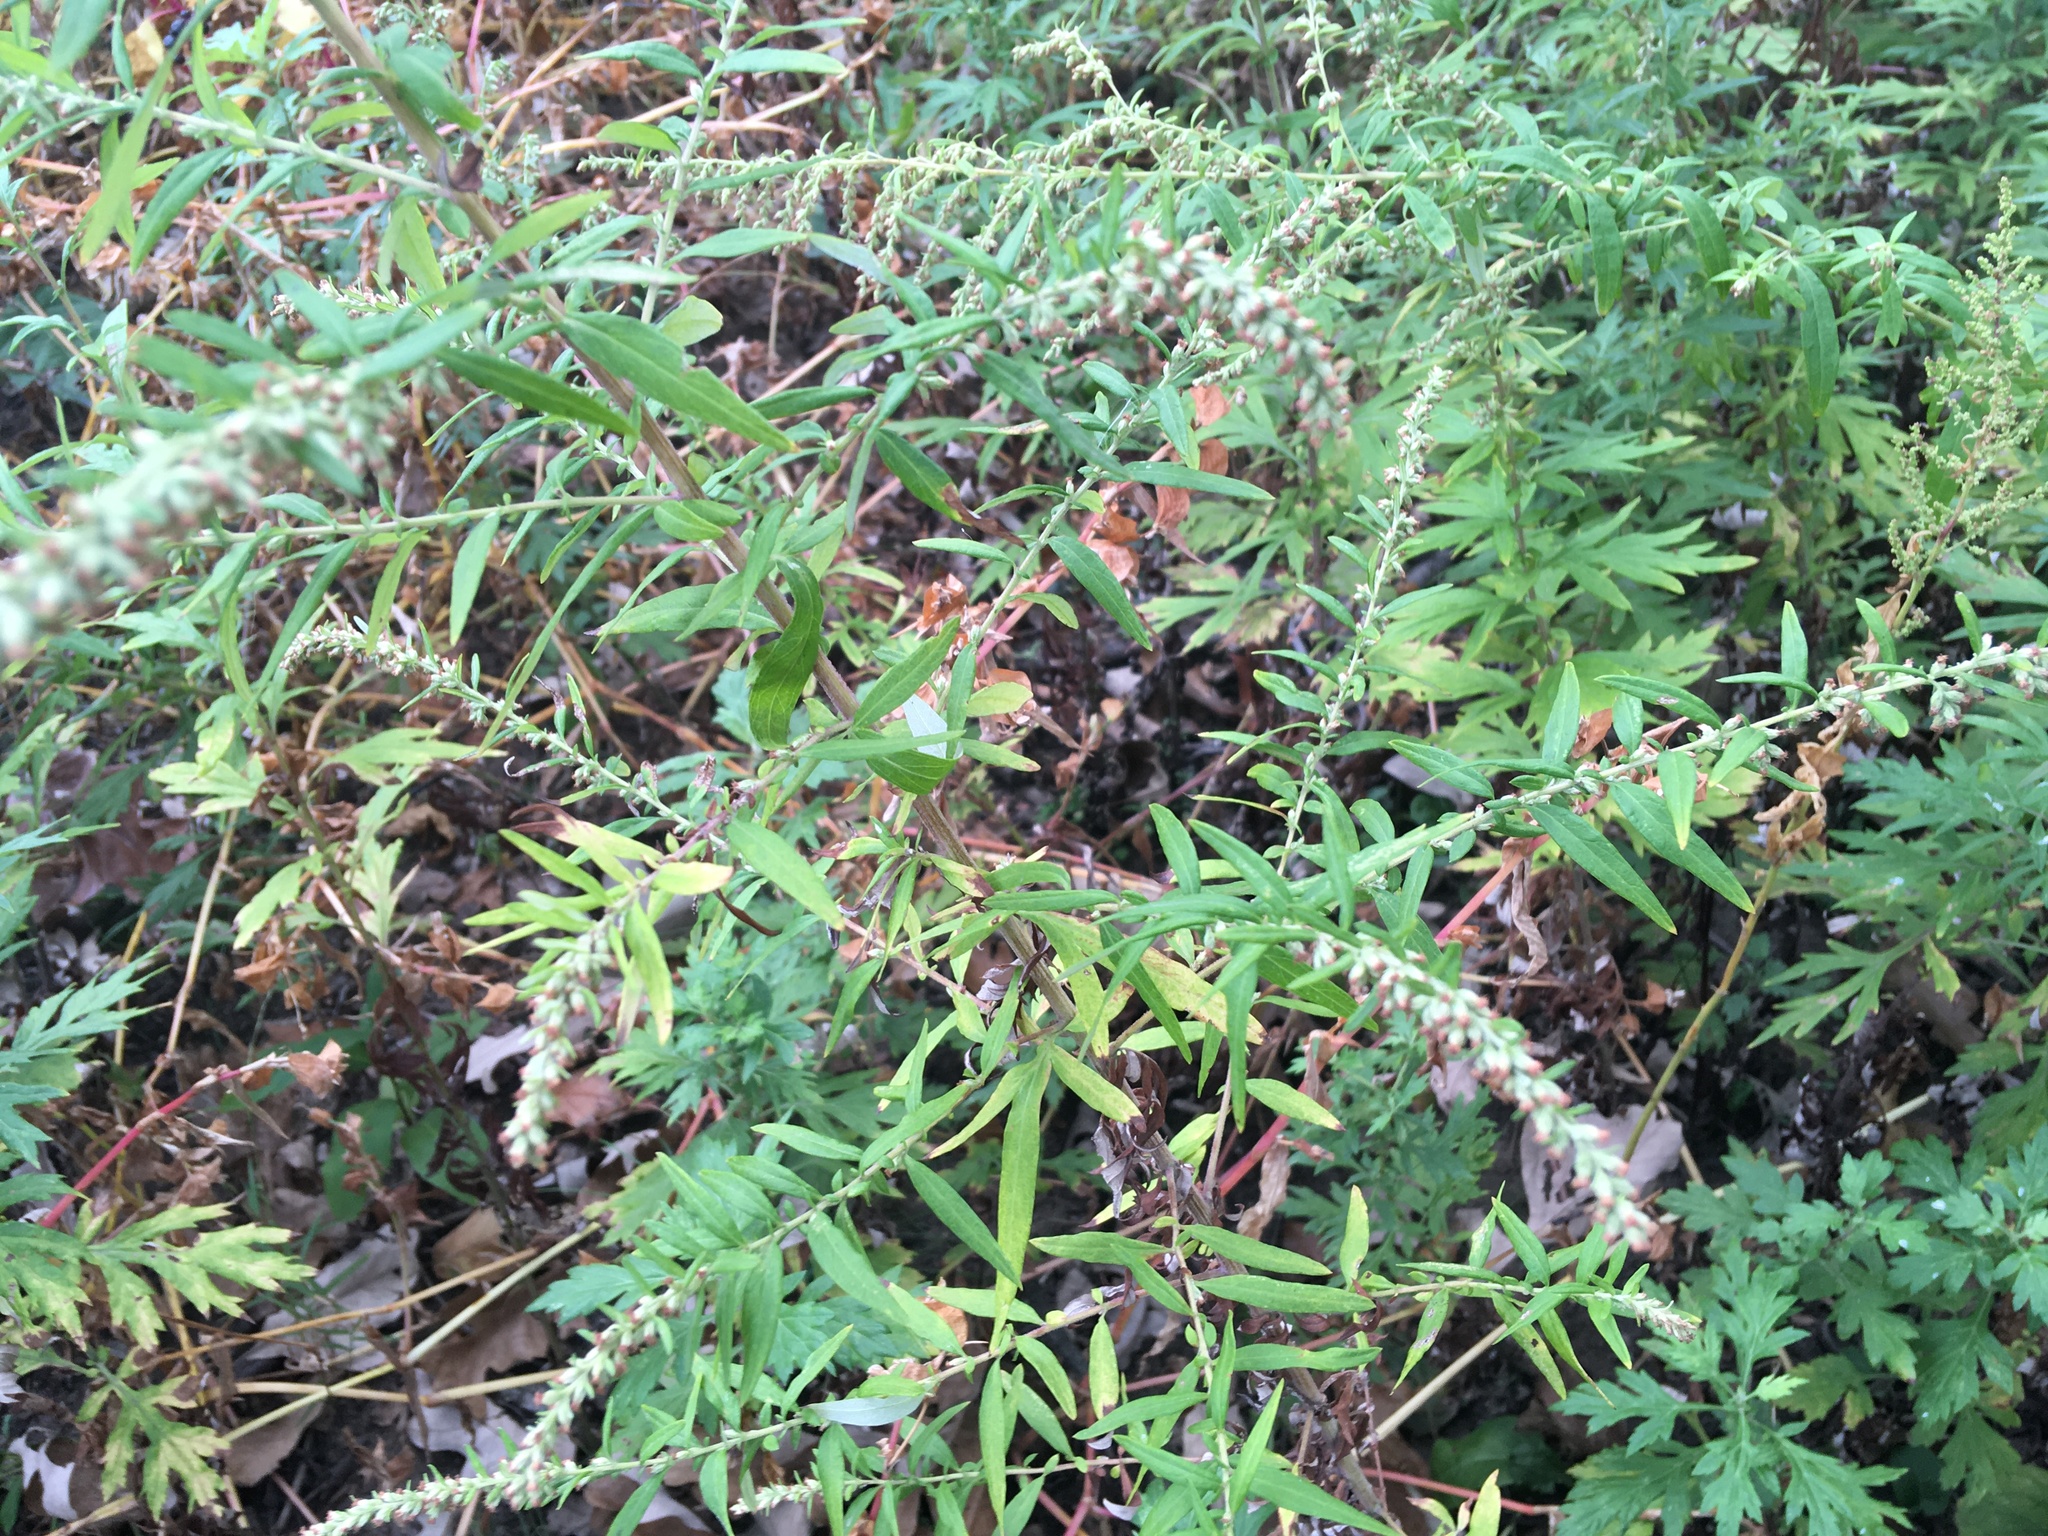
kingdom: Plantae
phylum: Tracheophyta
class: Magnoliopsida
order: Asterales
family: Asteraceae
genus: Artemisia
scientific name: Artemisia vulgaris
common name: Mugwort
